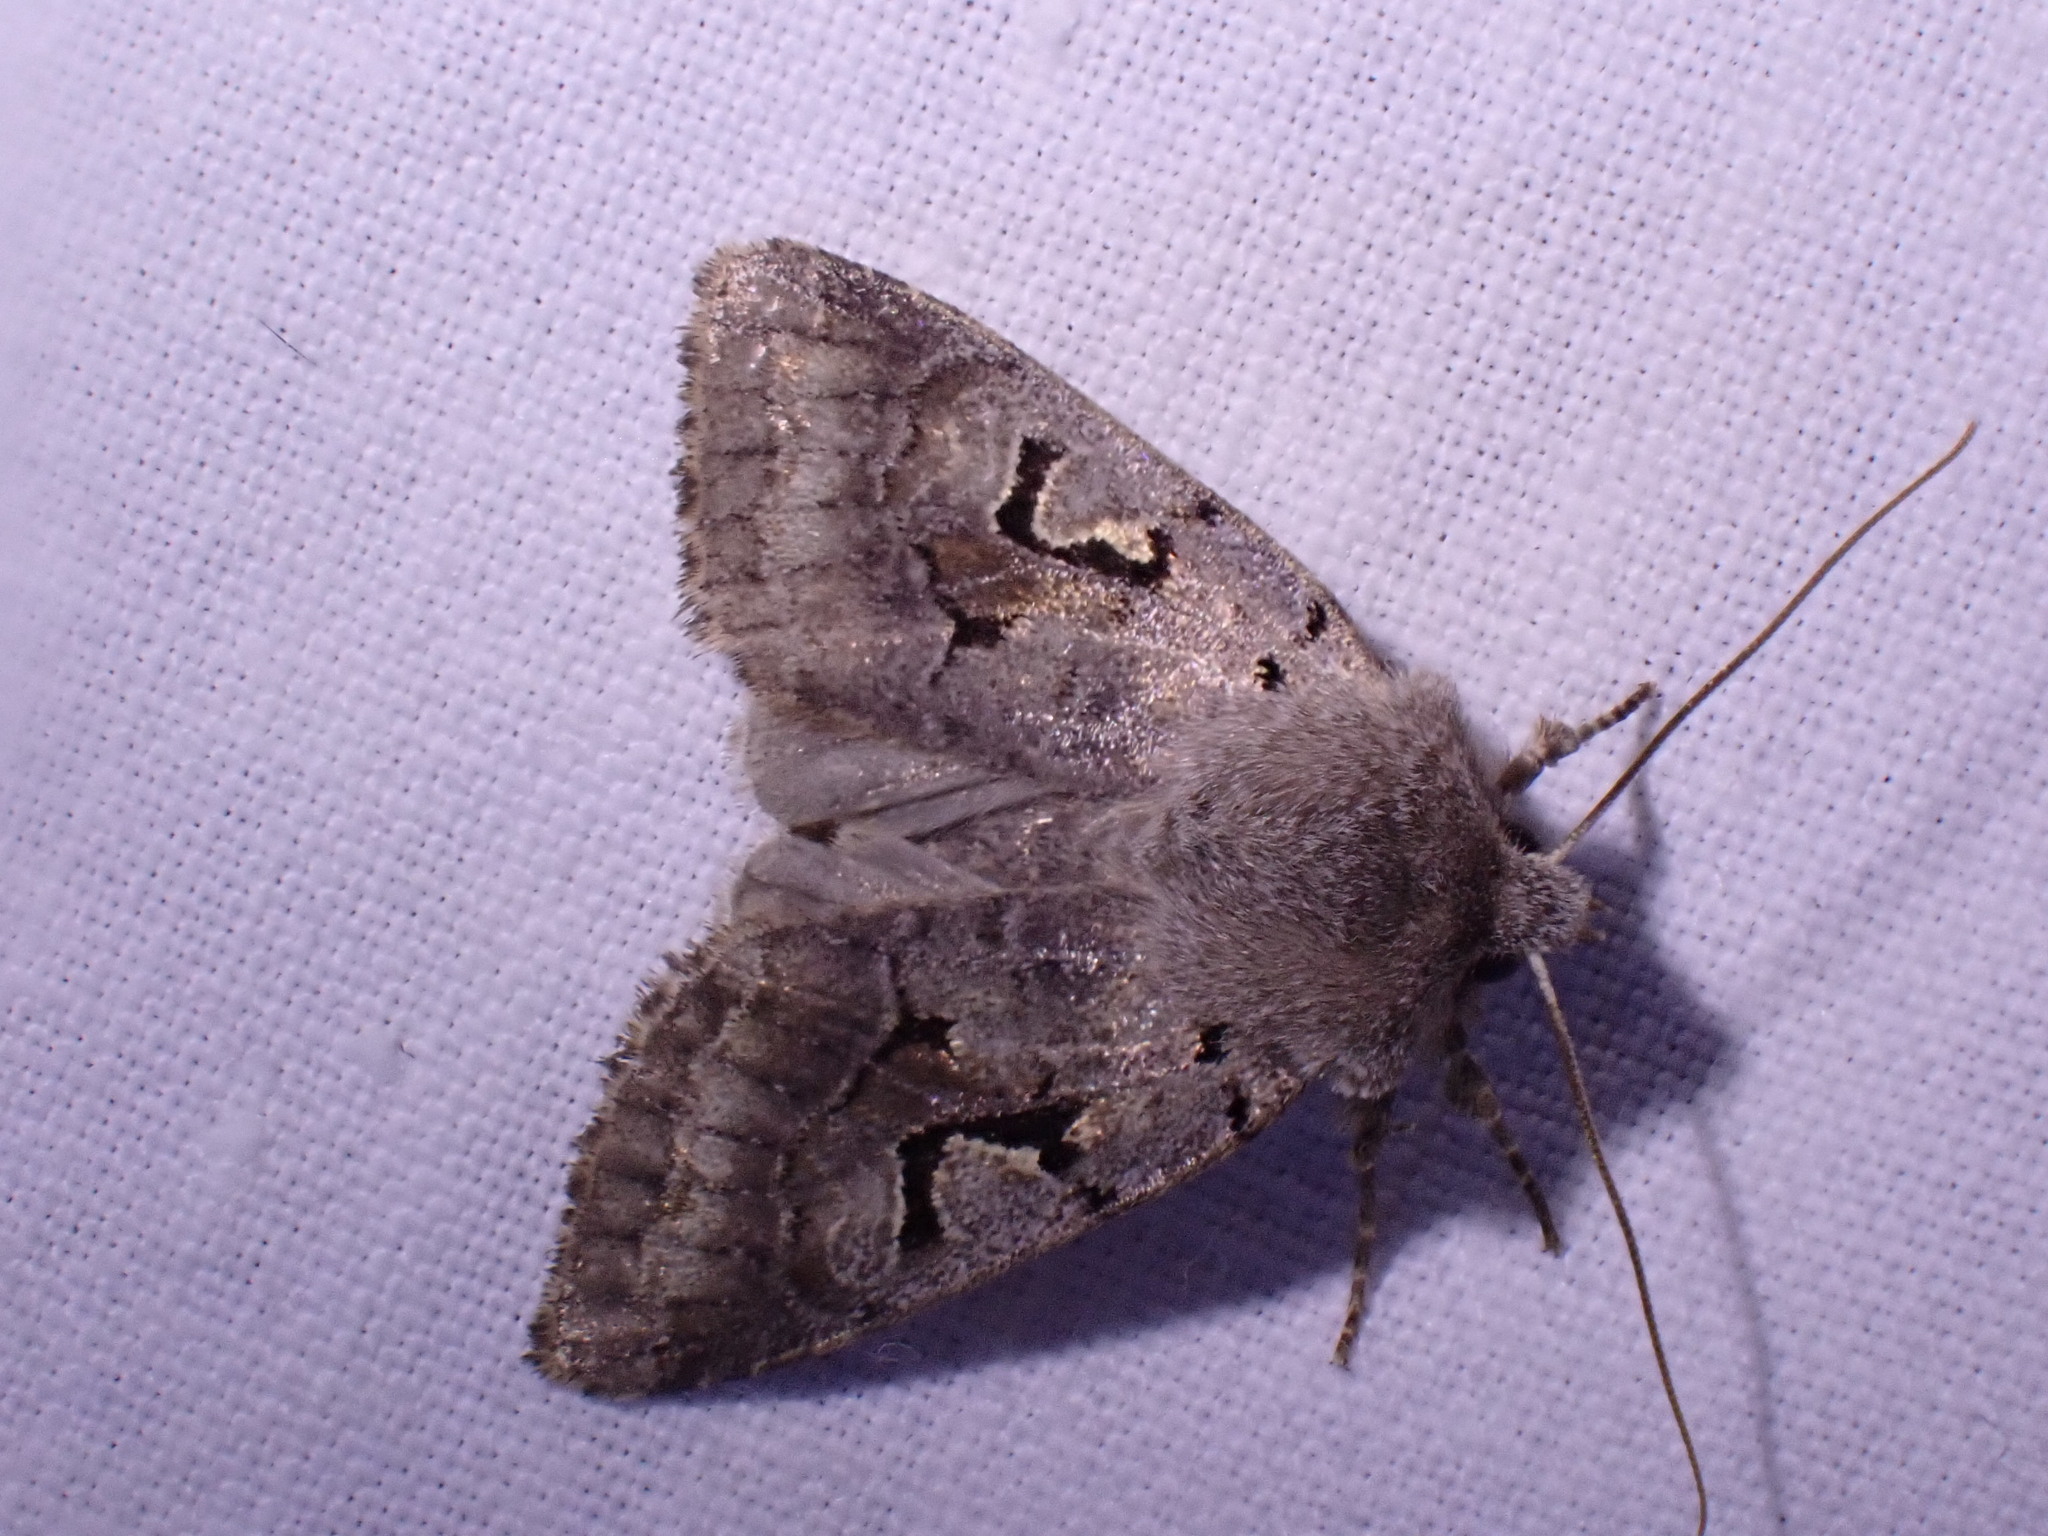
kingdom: Animalia
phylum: Arthropoda
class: Insecta
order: Lepidoptera
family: Noctuidae
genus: Orthosia
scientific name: Orthosia gothica
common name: Hebrew character
